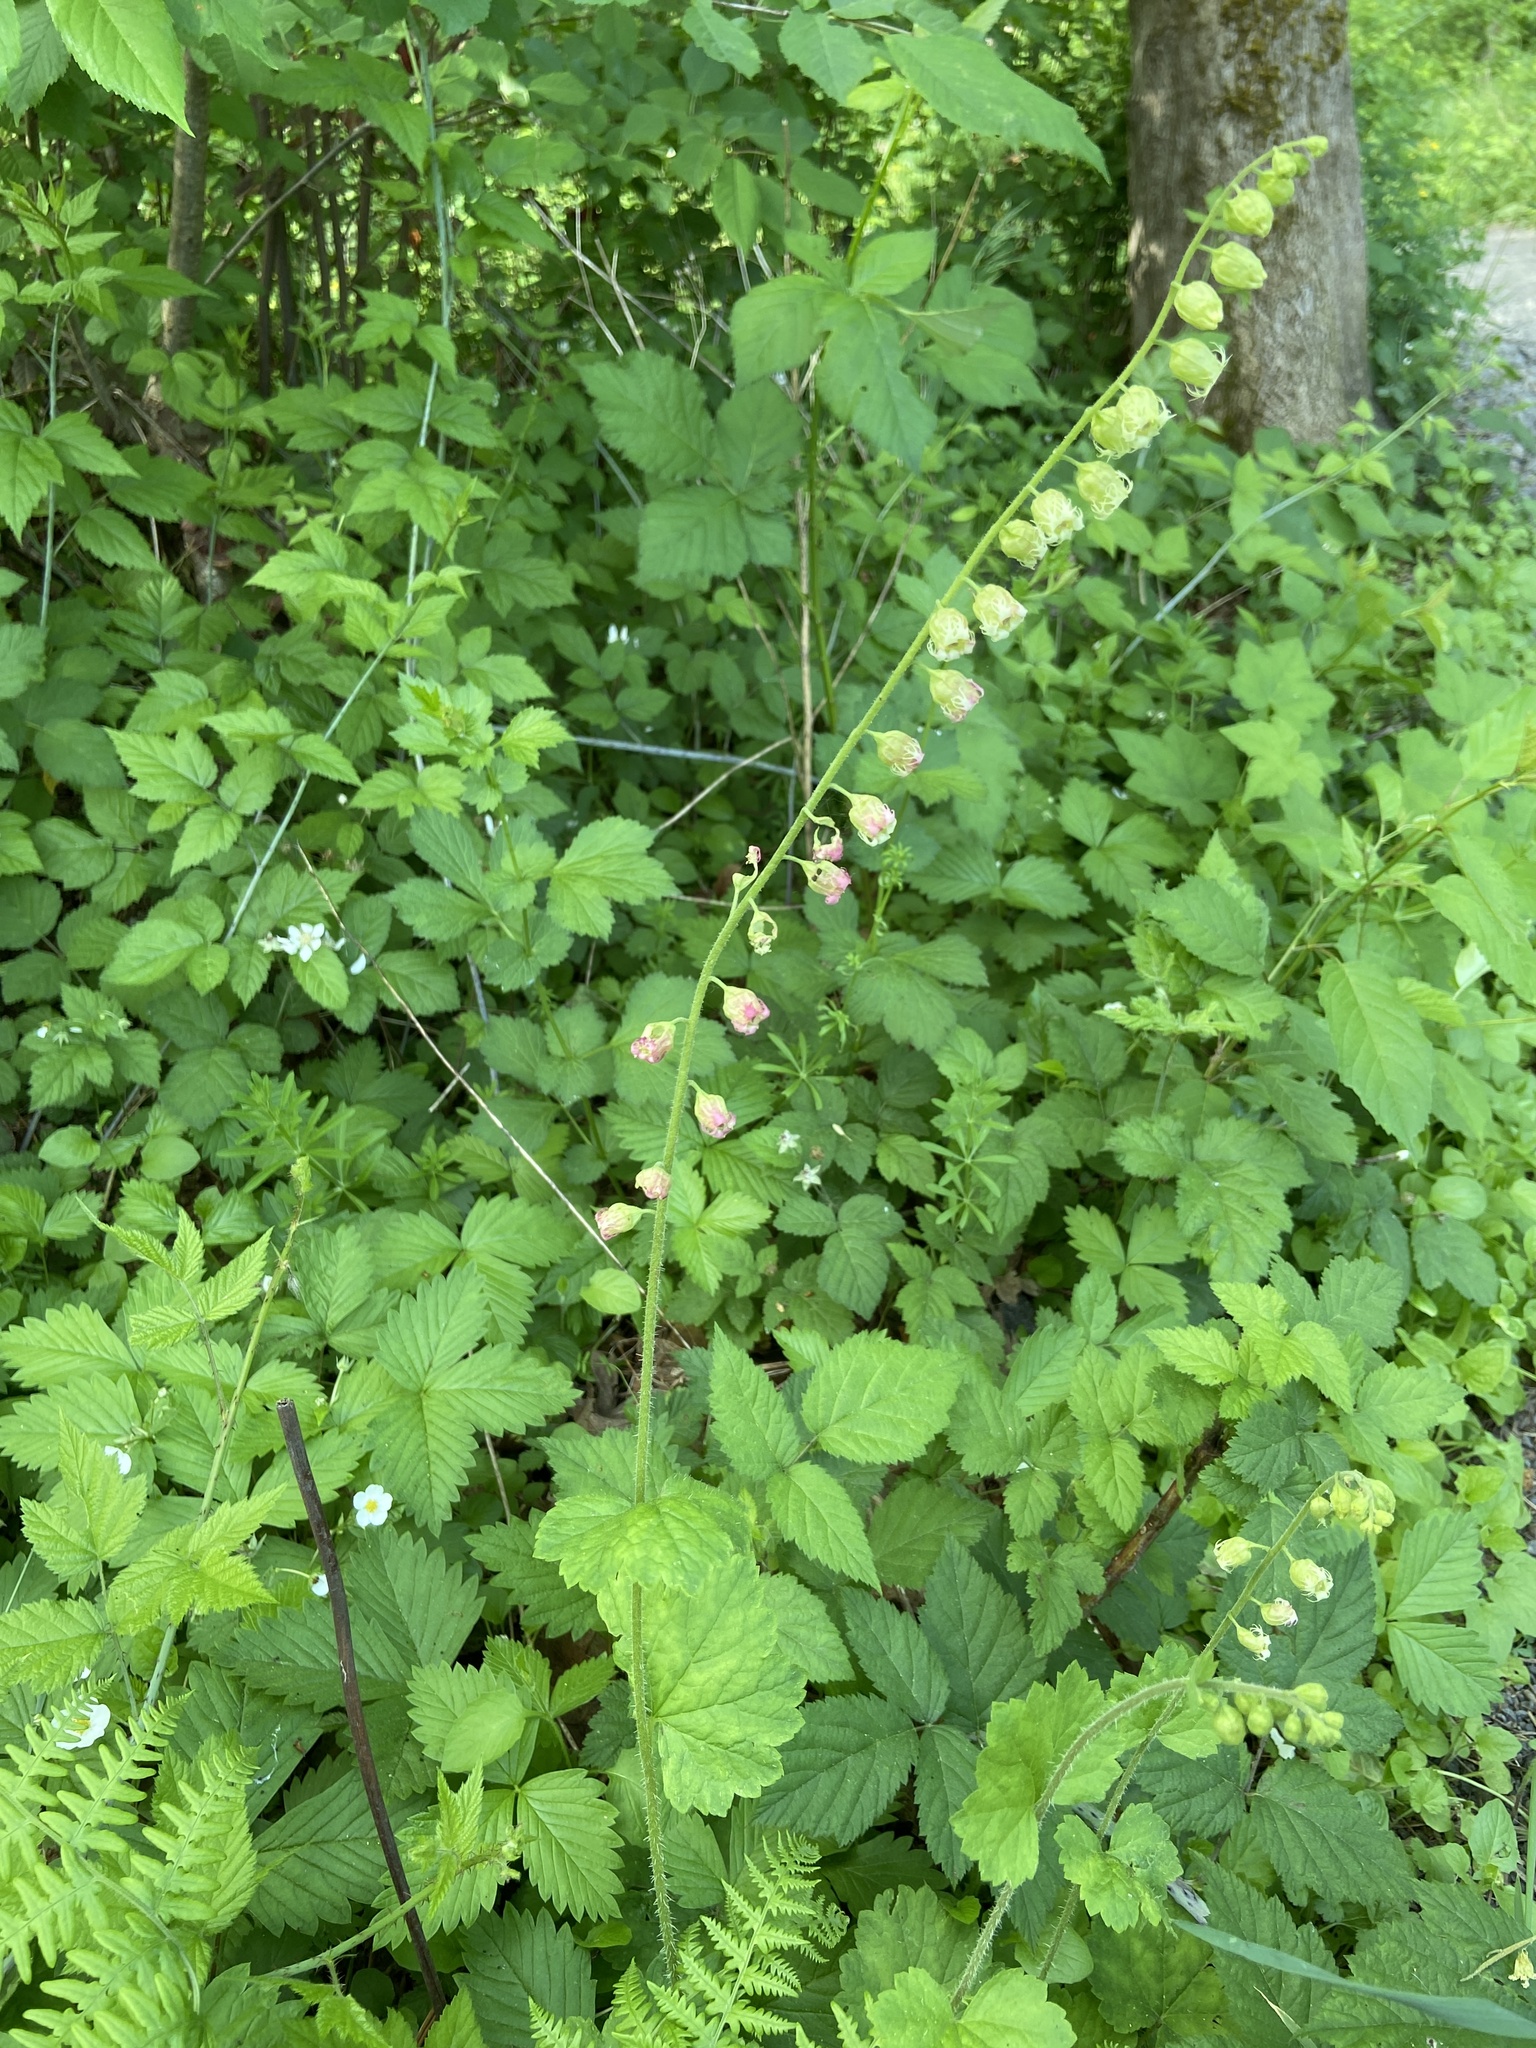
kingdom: Plantae
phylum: Tracheophyta
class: Magnoliopsida
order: Saxifragales
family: Saxifragaceae
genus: Tellima
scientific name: Tellima grandiflora
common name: Fringecups
